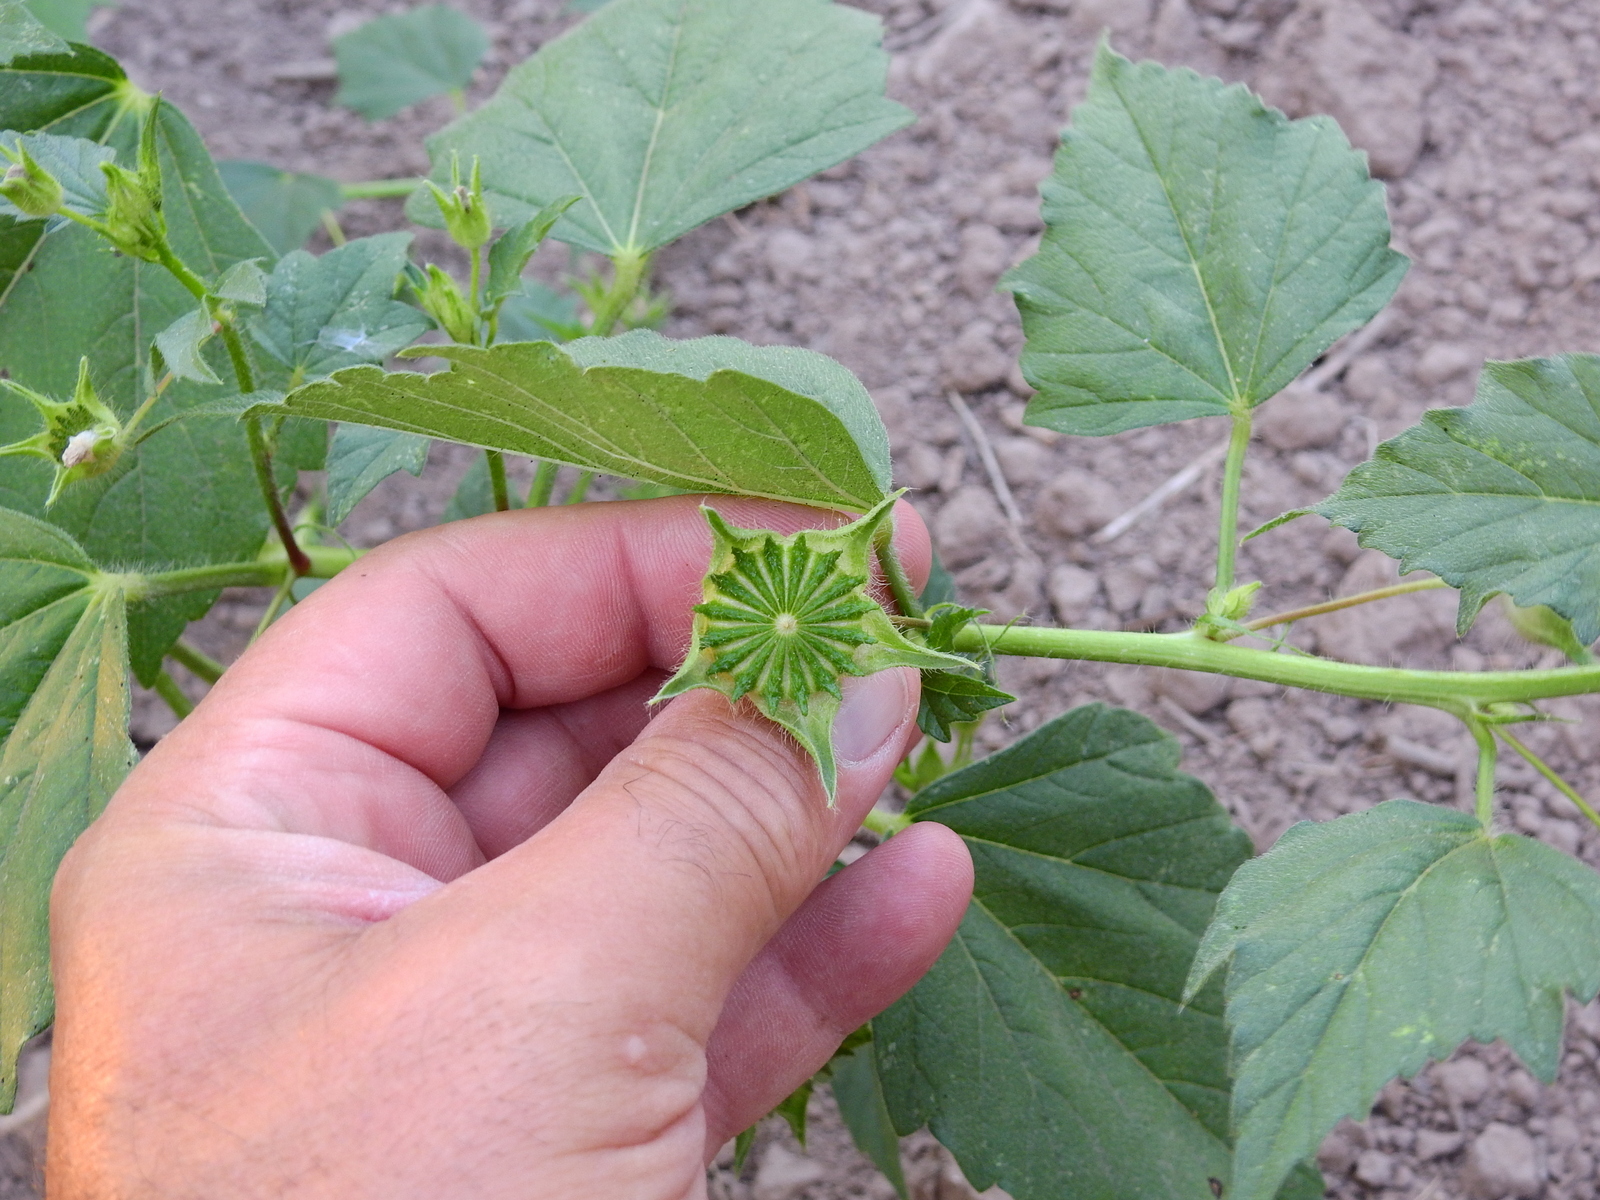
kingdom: Plantae
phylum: Tracheophyta
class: Magnoliopsida
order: Malvales
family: Malvaceae
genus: Anoda
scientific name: Anoda cristata
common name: Spurred anoda
